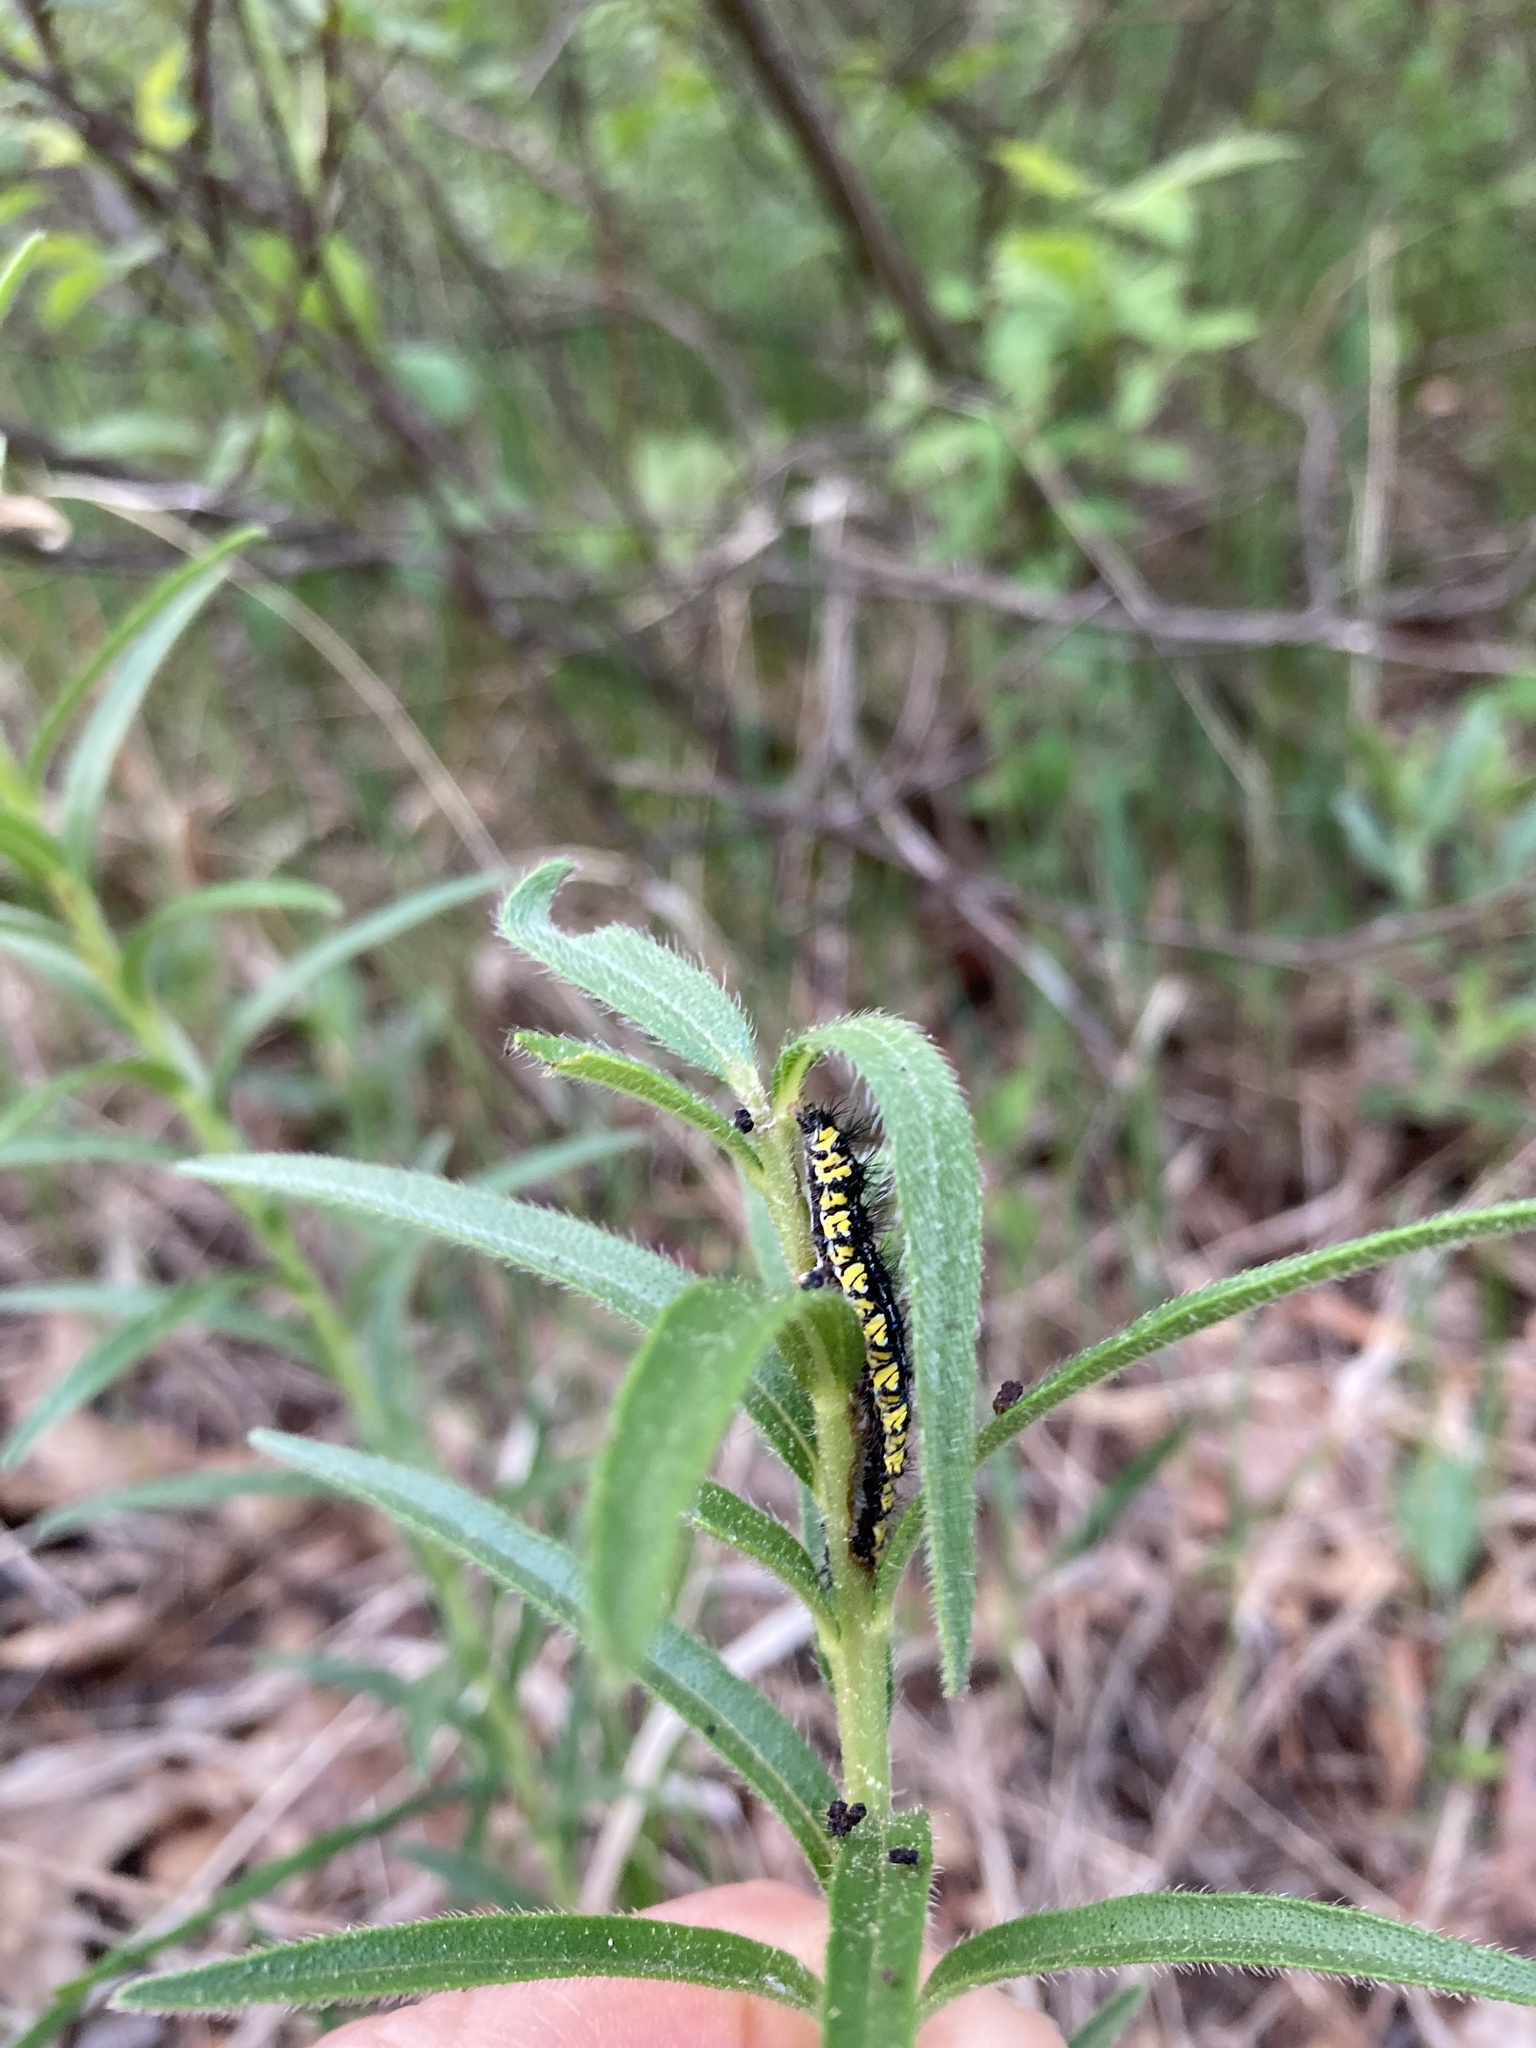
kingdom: Animalia
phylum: Arthropoda
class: Insecta
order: Lepidoptera
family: Erebidae
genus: Haploa
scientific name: Haploa contigua
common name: Neighbor moth
